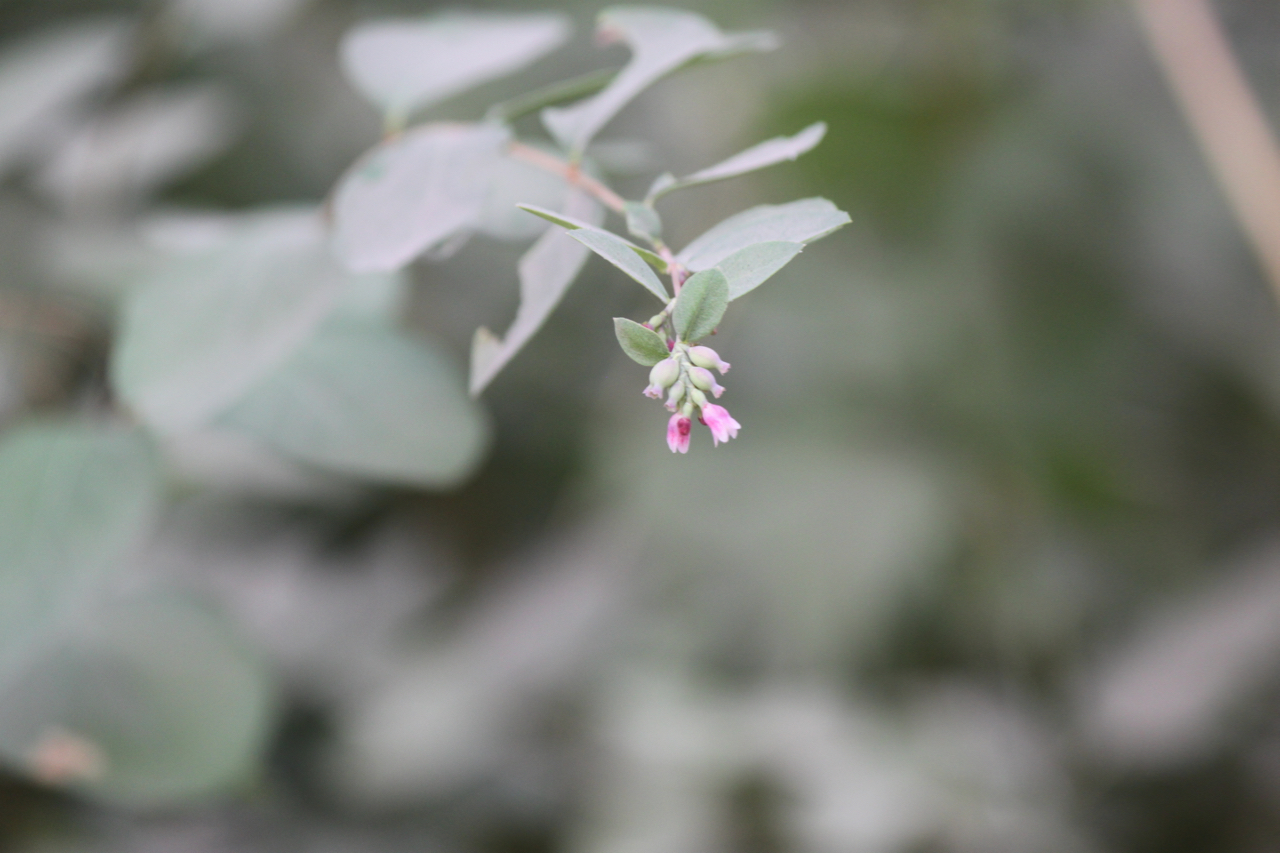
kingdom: Plantae
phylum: Tracheophyta
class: Magnoliopsida
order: Dipsacales
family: Caprifoliaceae
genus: Symphoricarpos
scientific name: Symphoricarpos albus
